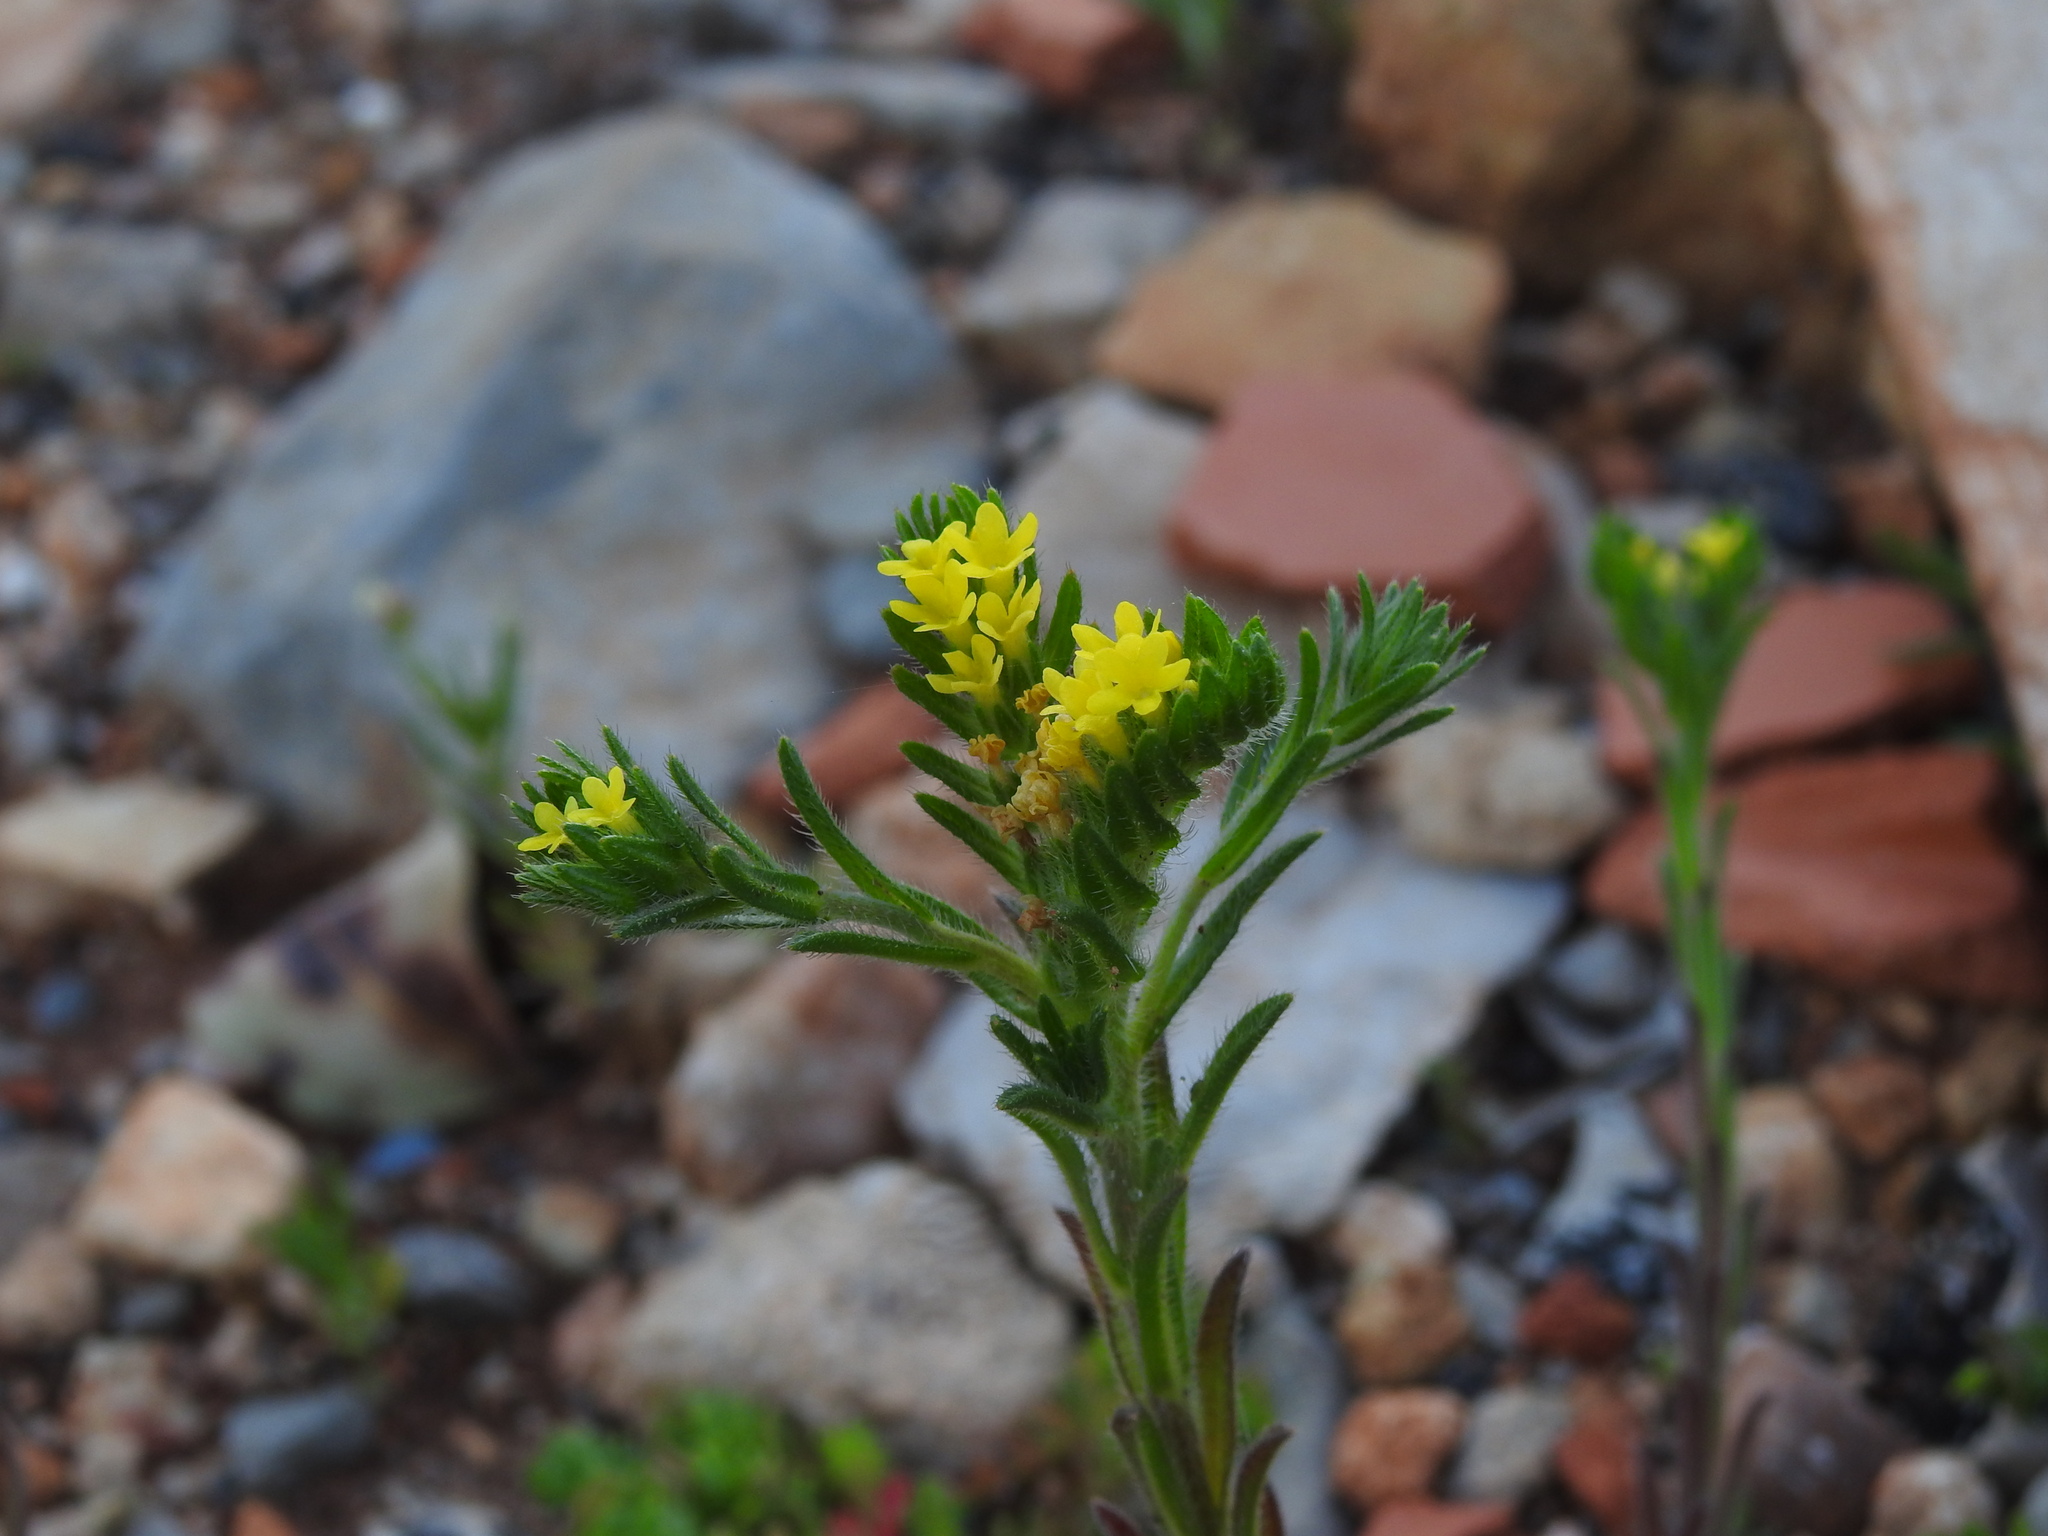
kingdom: Plantae
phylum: Tracheophyta
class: Magnoliopsida
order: Boraginales
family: Boraginaceae
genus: Neatostema
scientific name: Neatostema apulum
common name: Hairy sheepweed
